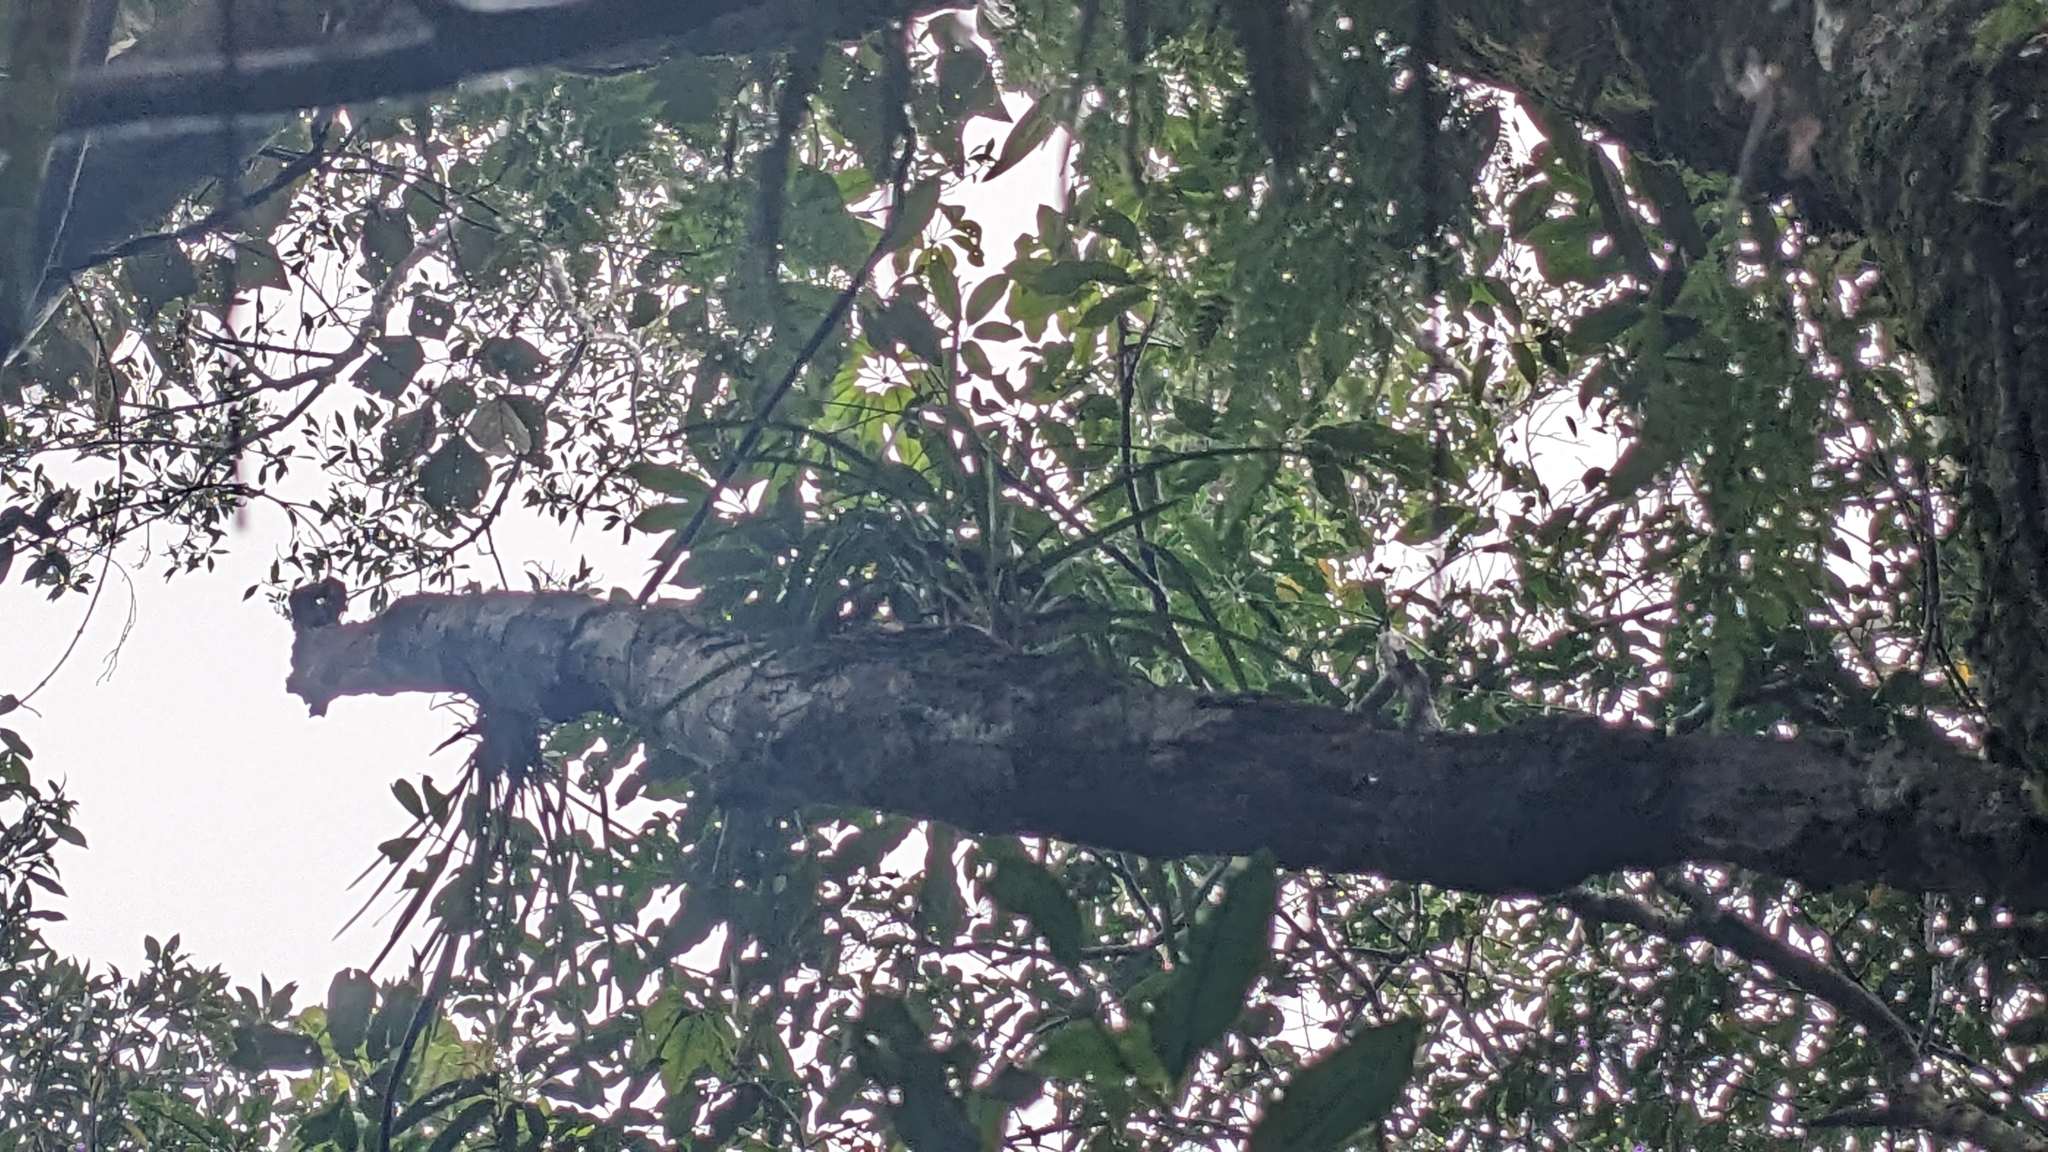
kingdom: Plantae
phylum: Tracheophyta
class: Liliopsida
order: Asparagales
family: Orchidaceae
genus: Cymbidium
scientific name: Cymbidium dayanum
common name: Orchid
